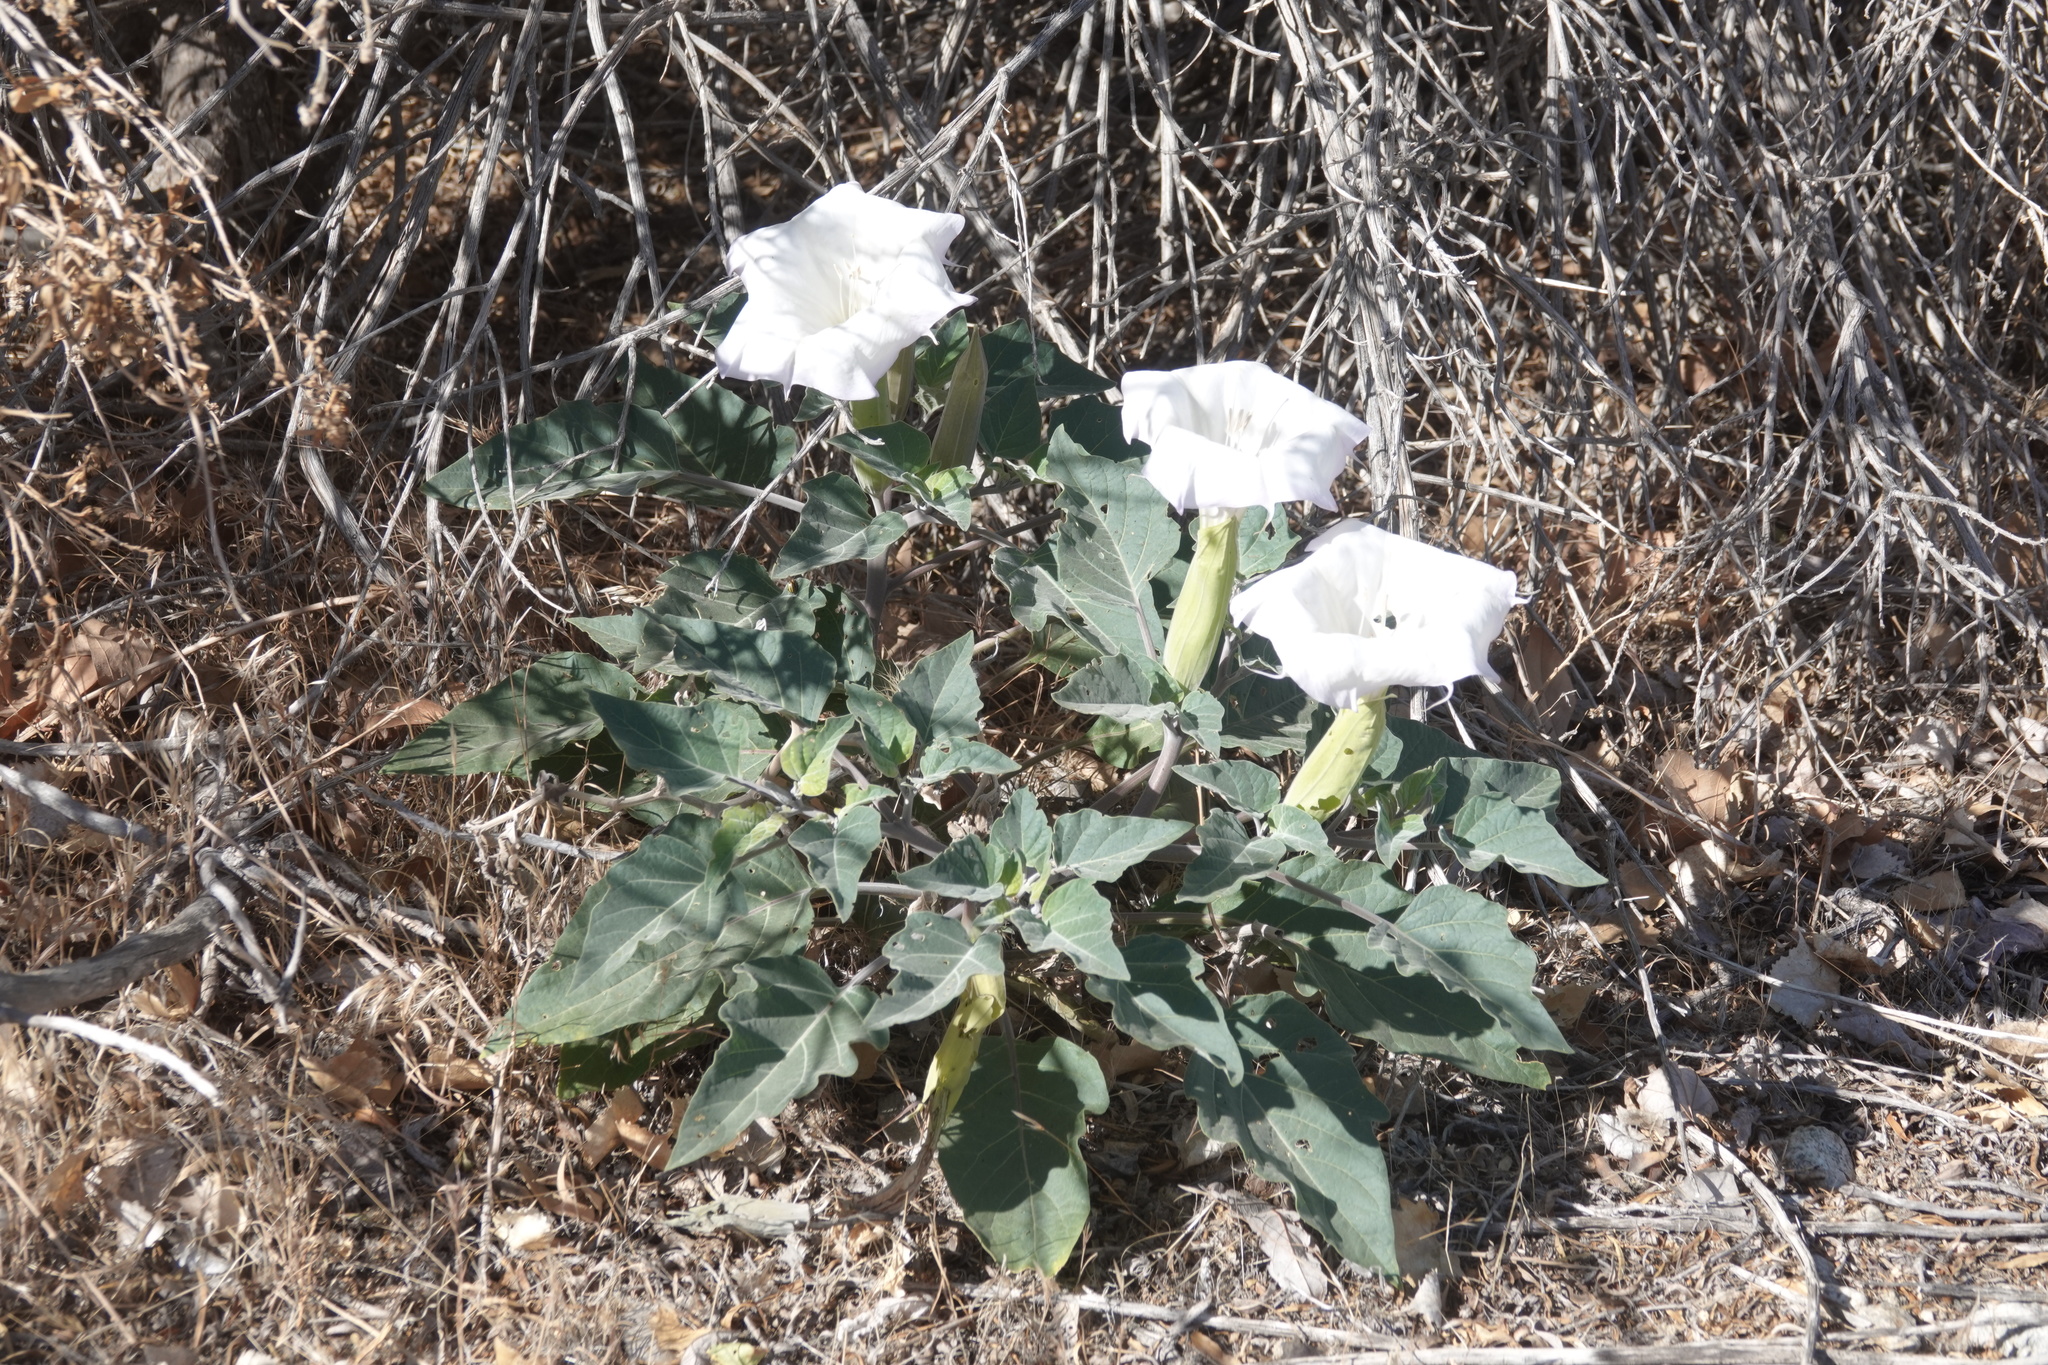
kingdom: Plantae
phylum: Tracheophyta
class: Magnoliopsida
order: Solanales
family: Solanaceae
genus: Datura
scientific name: Datura wrightii
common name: Sacred thorn-apple
